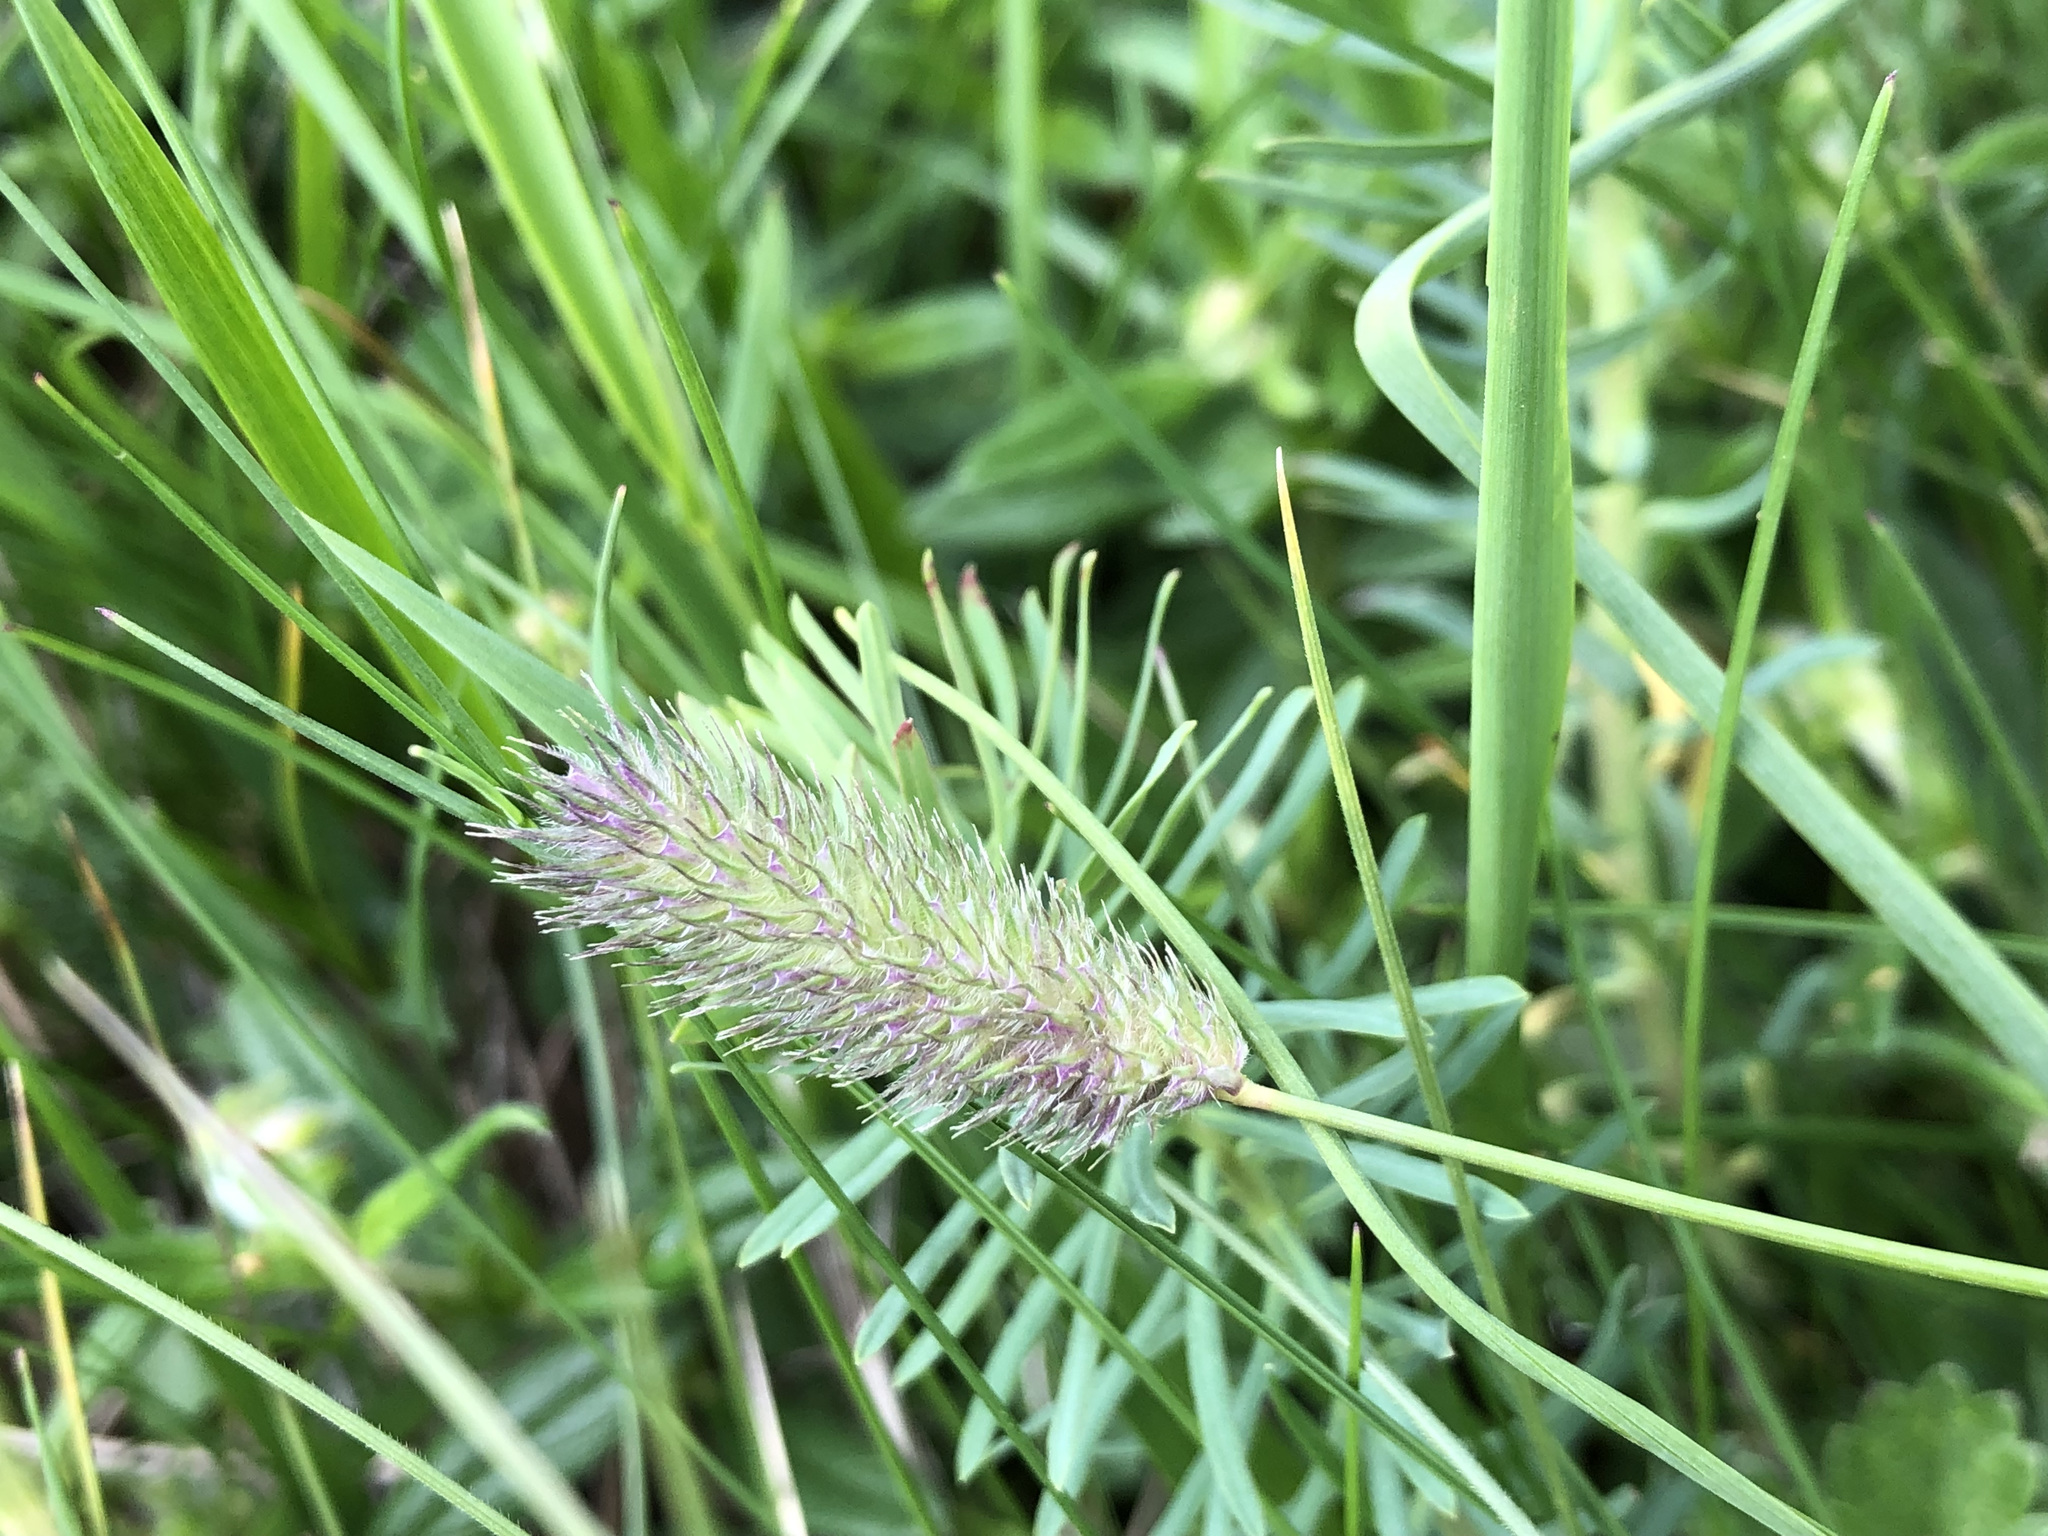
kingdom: Plantae
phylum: Tracheophyta
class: Liliopsida
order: Poales
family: Poaceae
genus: Phleum
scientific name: Phleum alpinum
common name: Alpine cat's-tail
